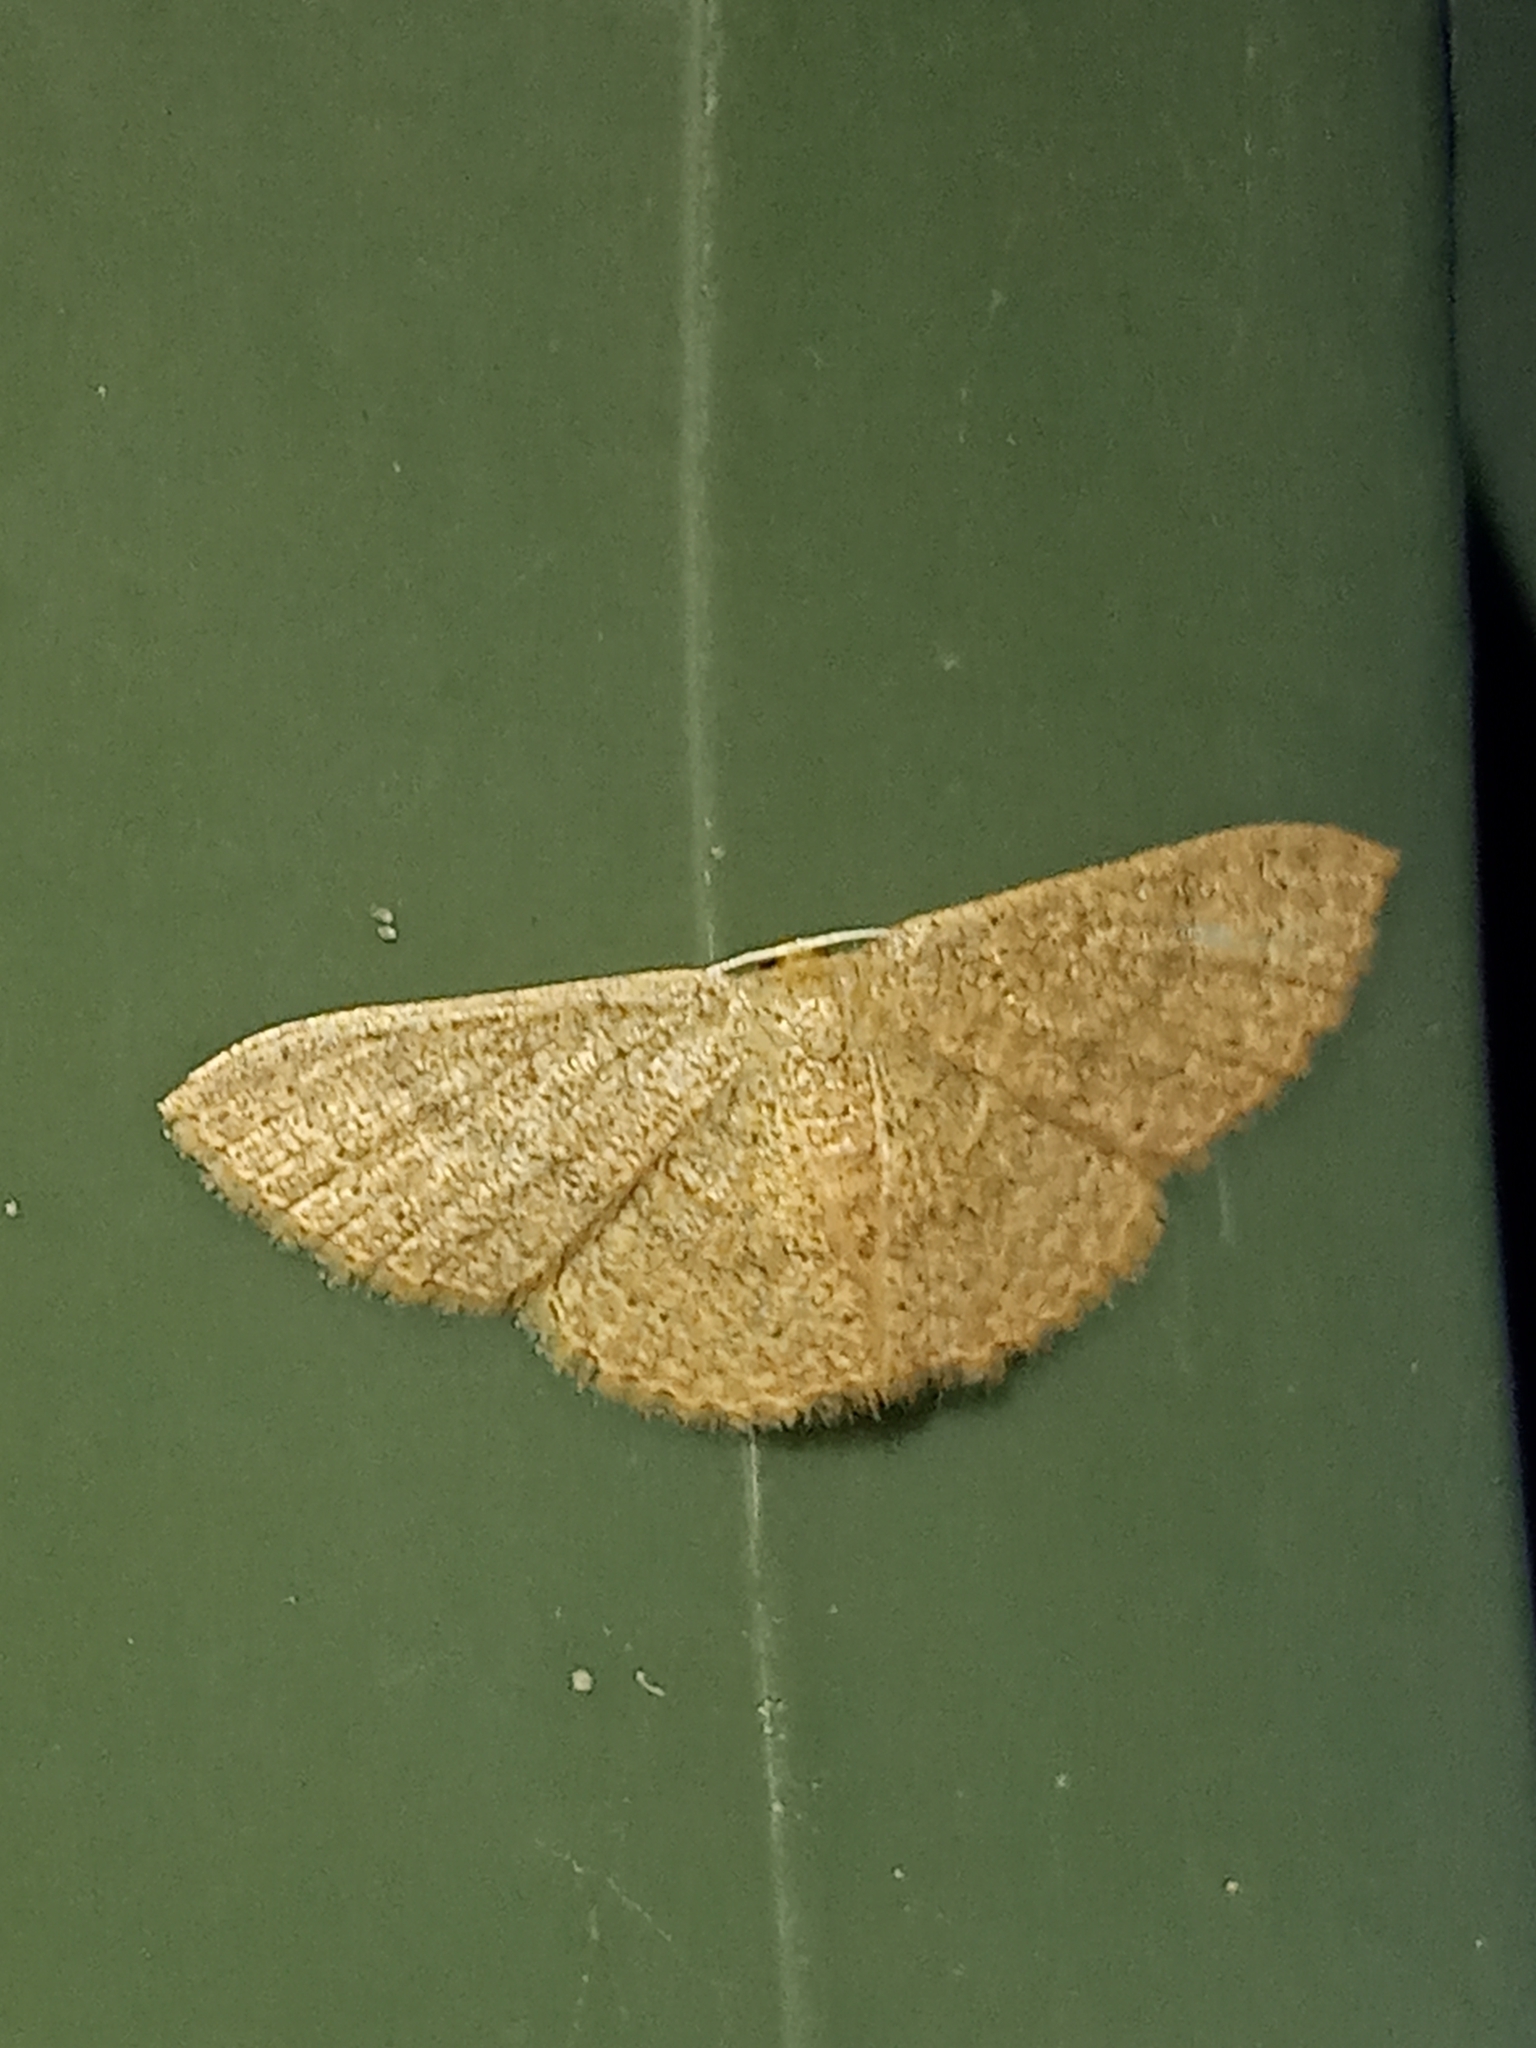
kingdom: Animalia
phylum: Arthropoda
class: Insecta
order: Lepidoptera
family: Geometridae
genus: Pleuroprucha
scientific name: Pleuroprucha insulsaria
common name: Common tan wave
